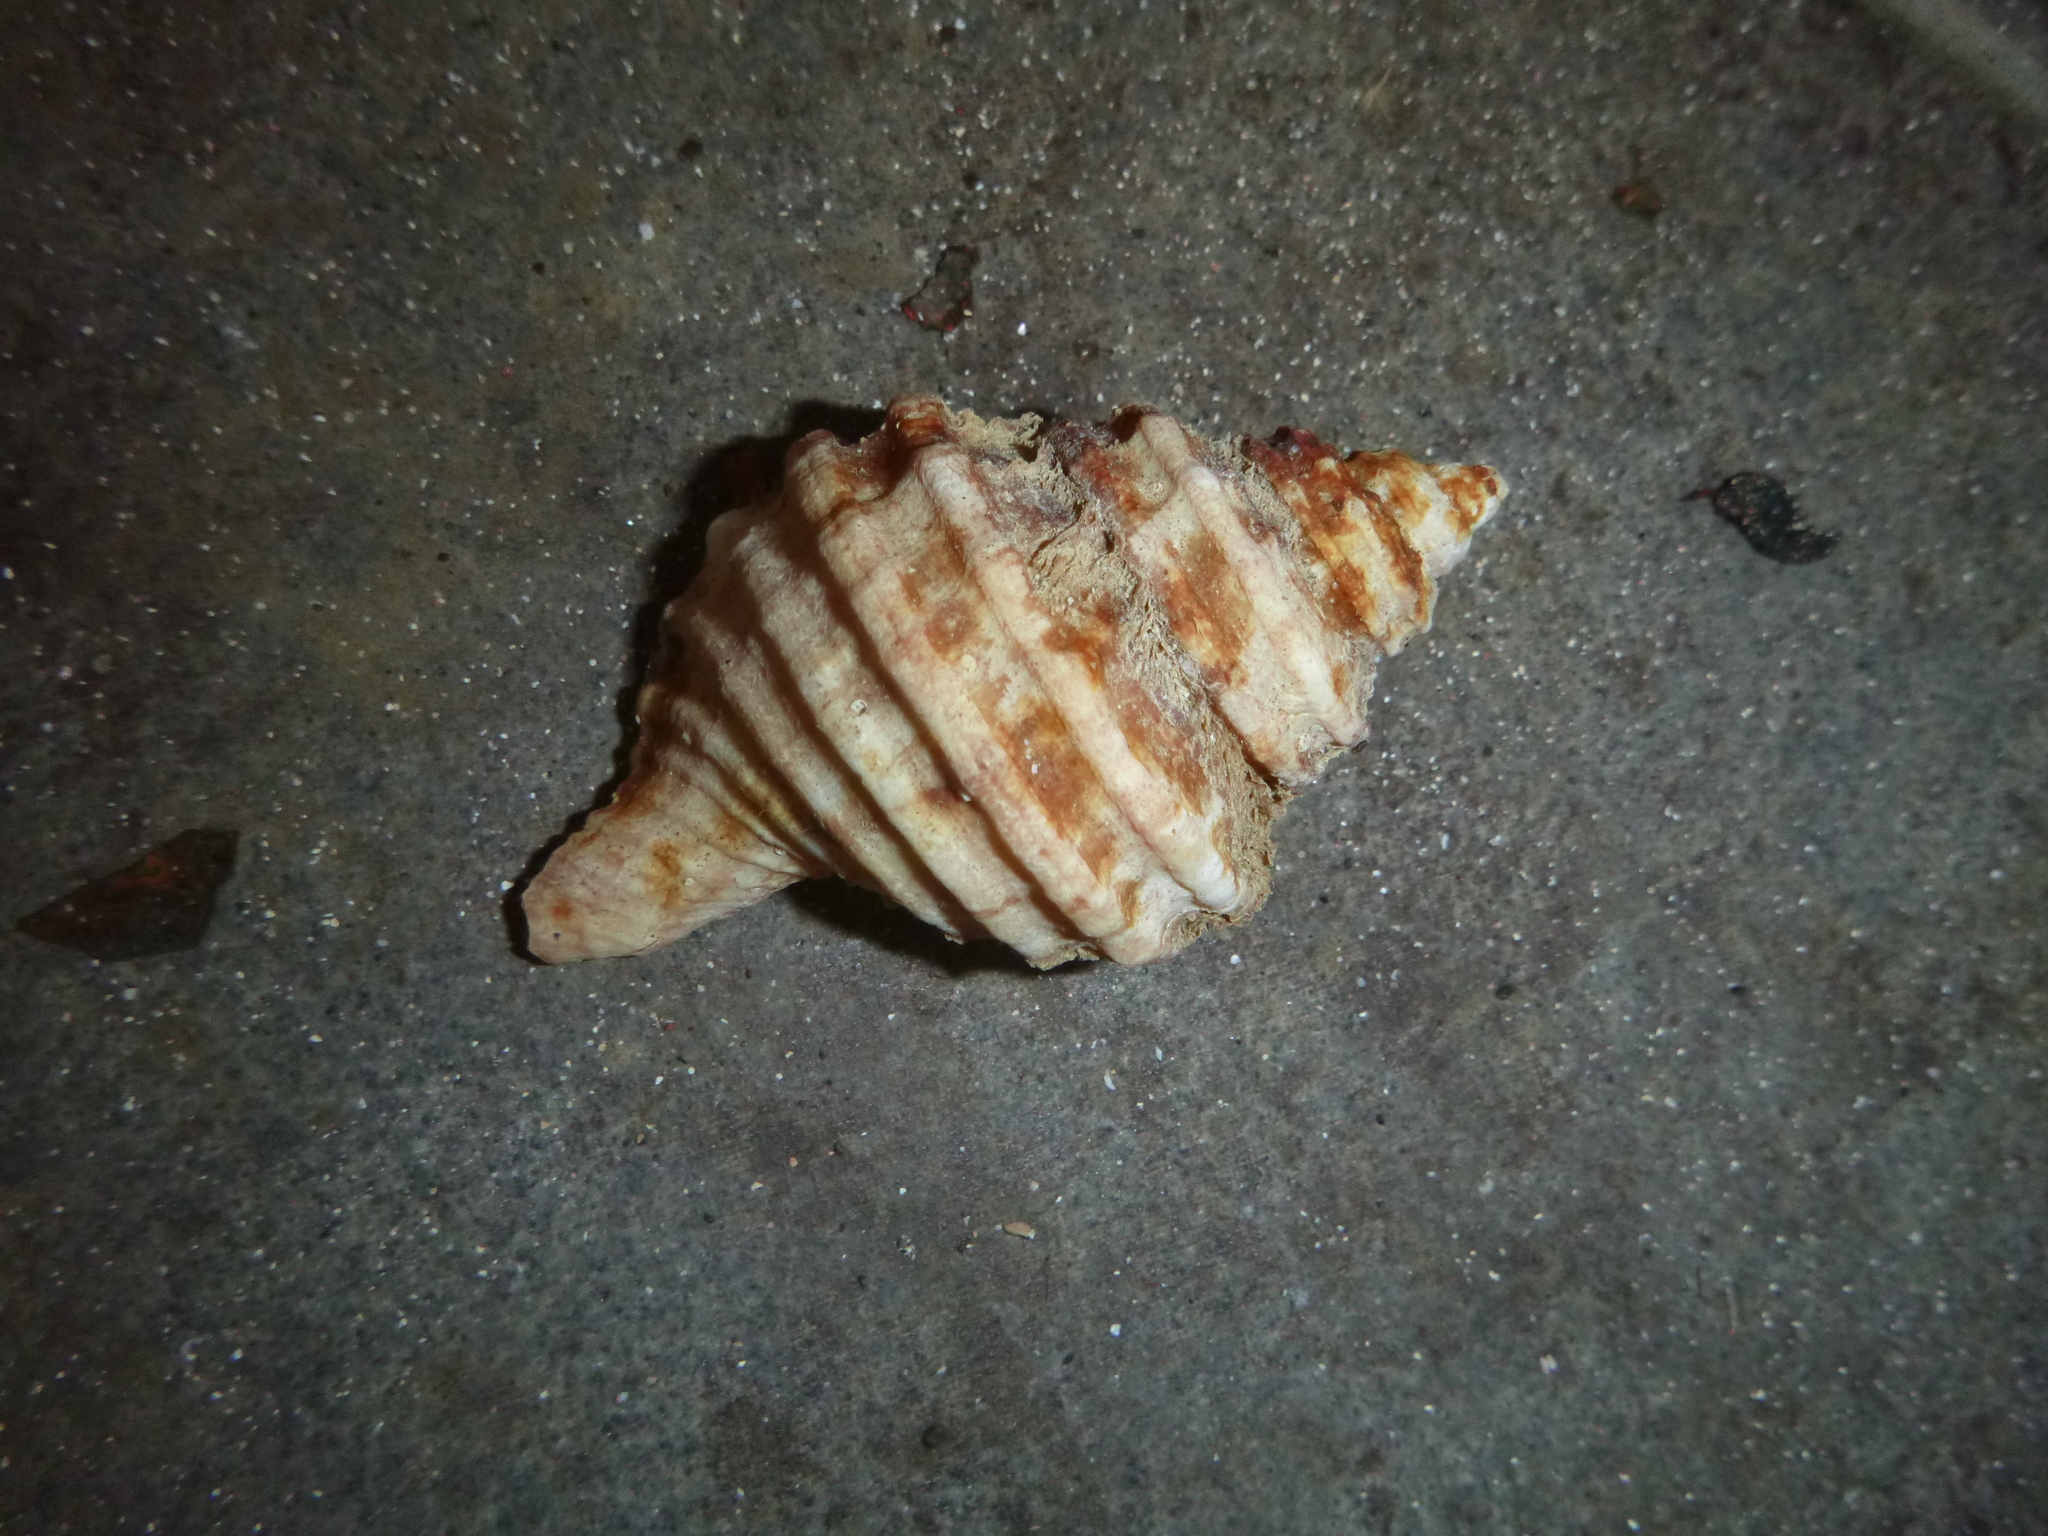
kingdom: Animalia
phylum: Mollusca
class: Gastropoda
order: Littorinimorpha
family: Cymatiidae
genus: Monoplex
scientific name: Monoplex parthenopeus
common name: Giant triton
